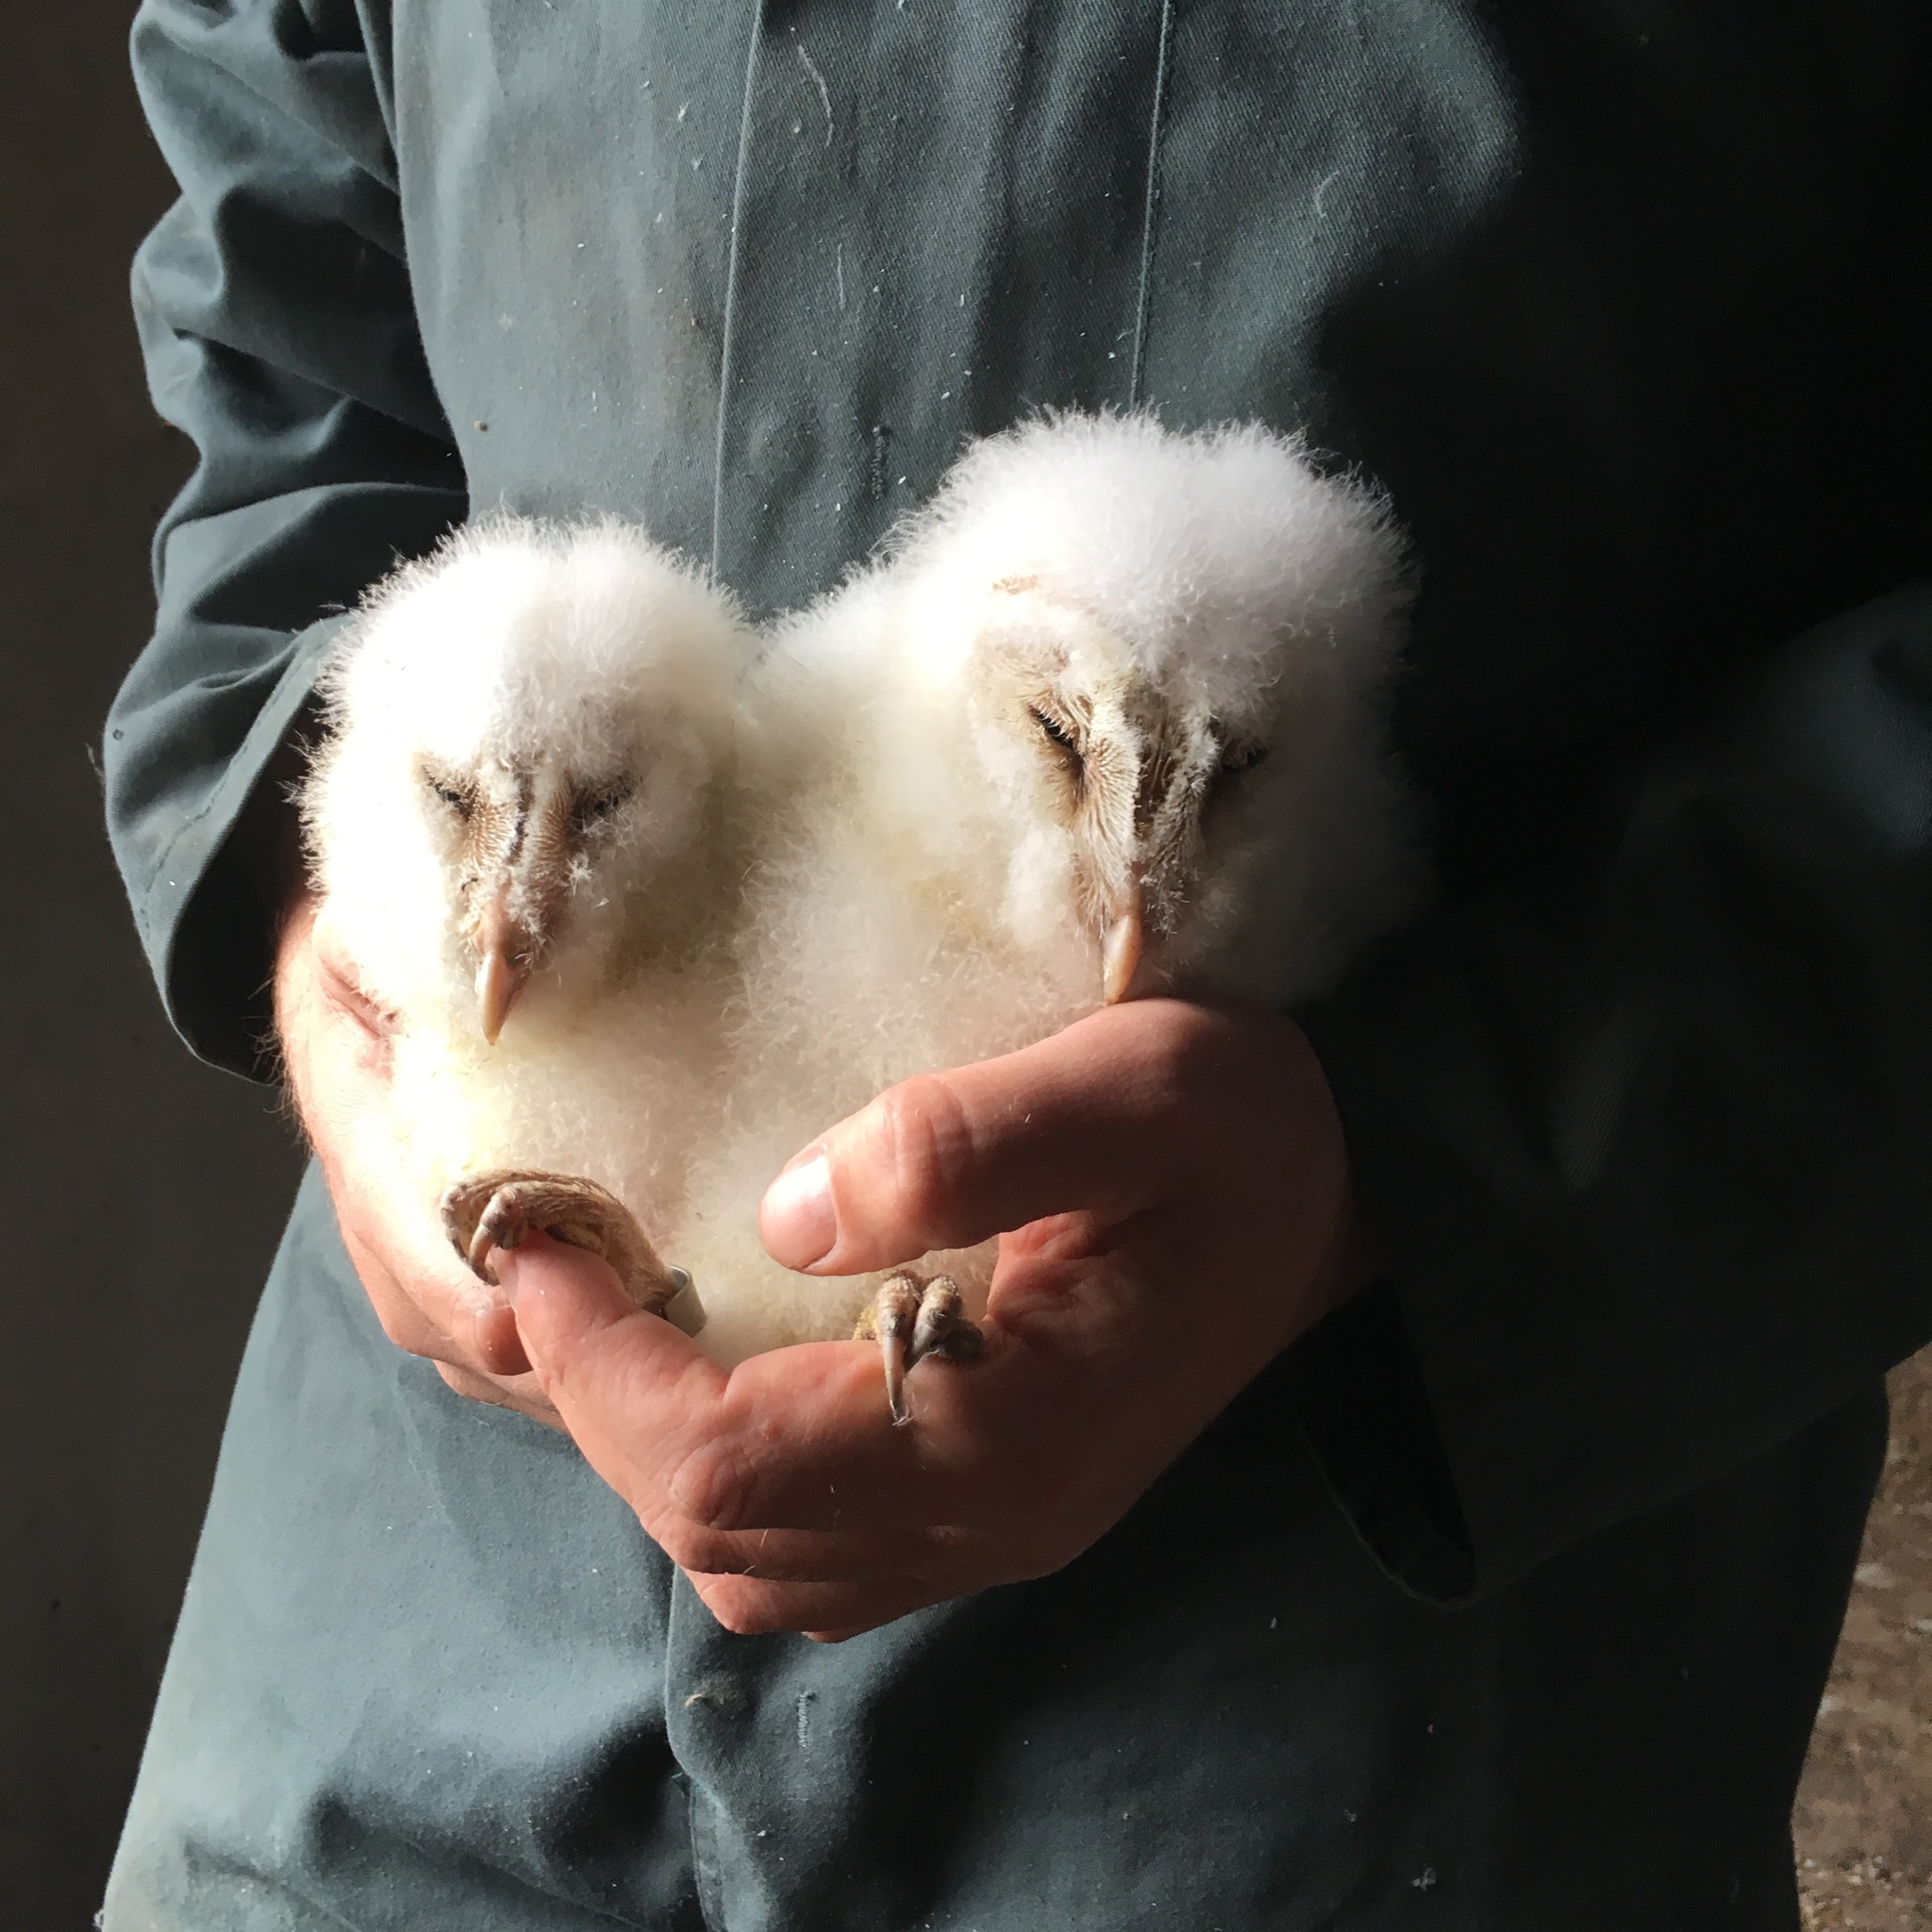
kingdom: Animalia
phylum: Chordata
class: Aves
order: Strigiformes
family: Tytonidae
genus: Tyto
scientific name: Tyto alba
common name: Barn owl
